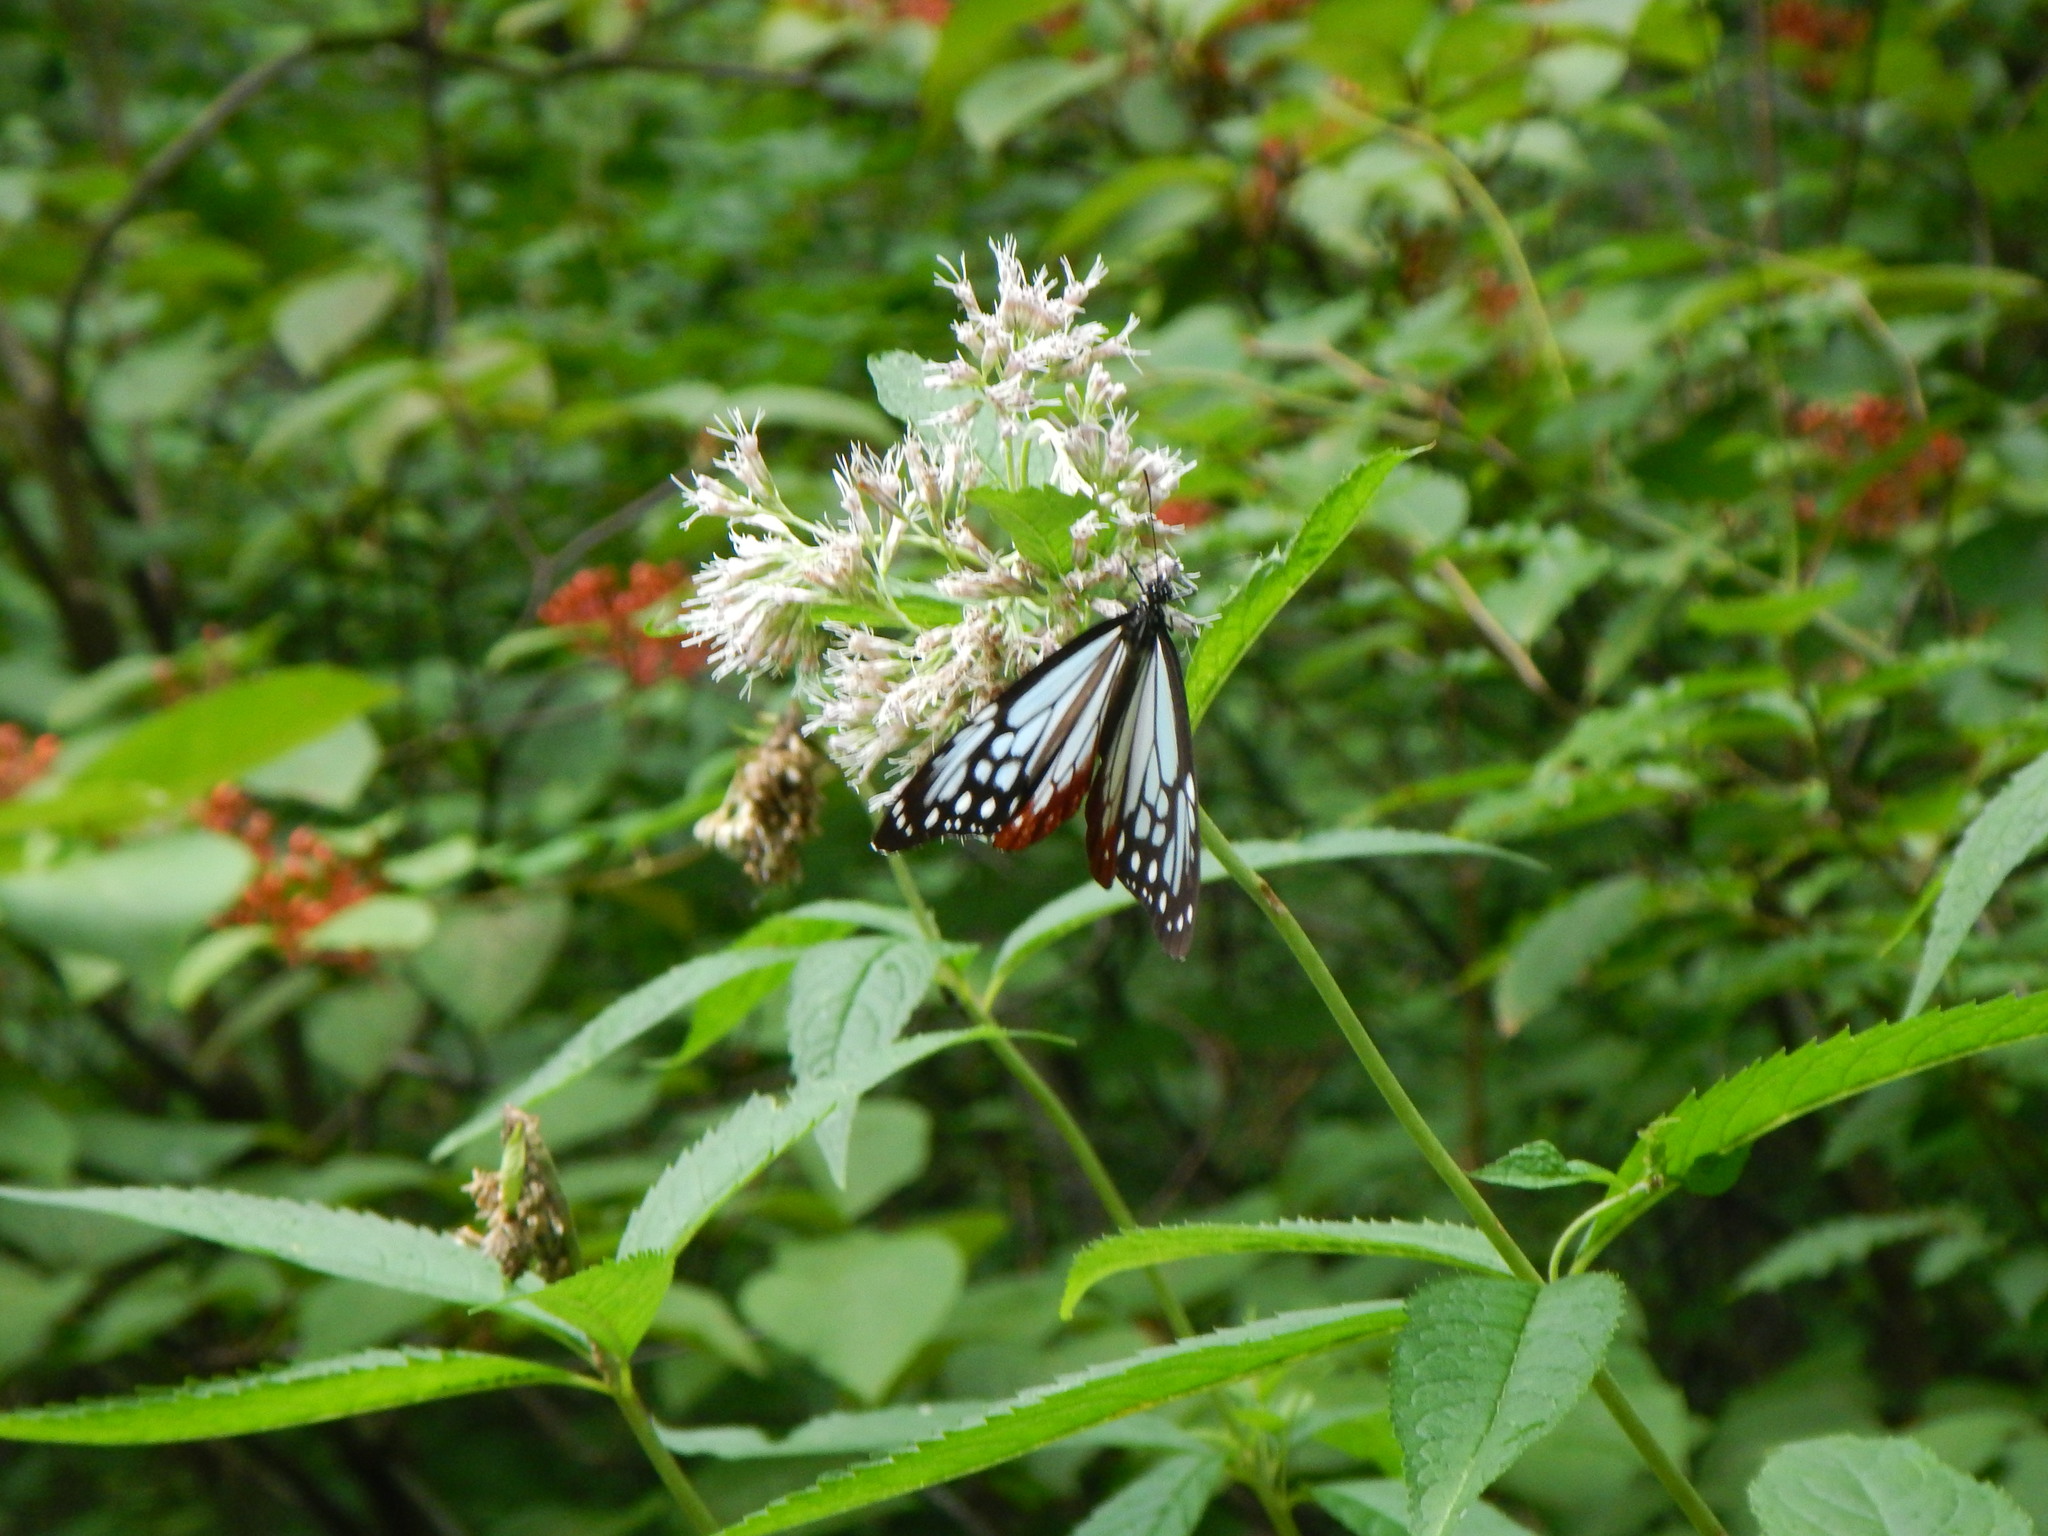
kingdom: Animalia
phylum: Arthropoda
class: Insecta
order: Lepidoptera
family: Nymphalidae
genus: Parantica
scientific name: Parantica sita
